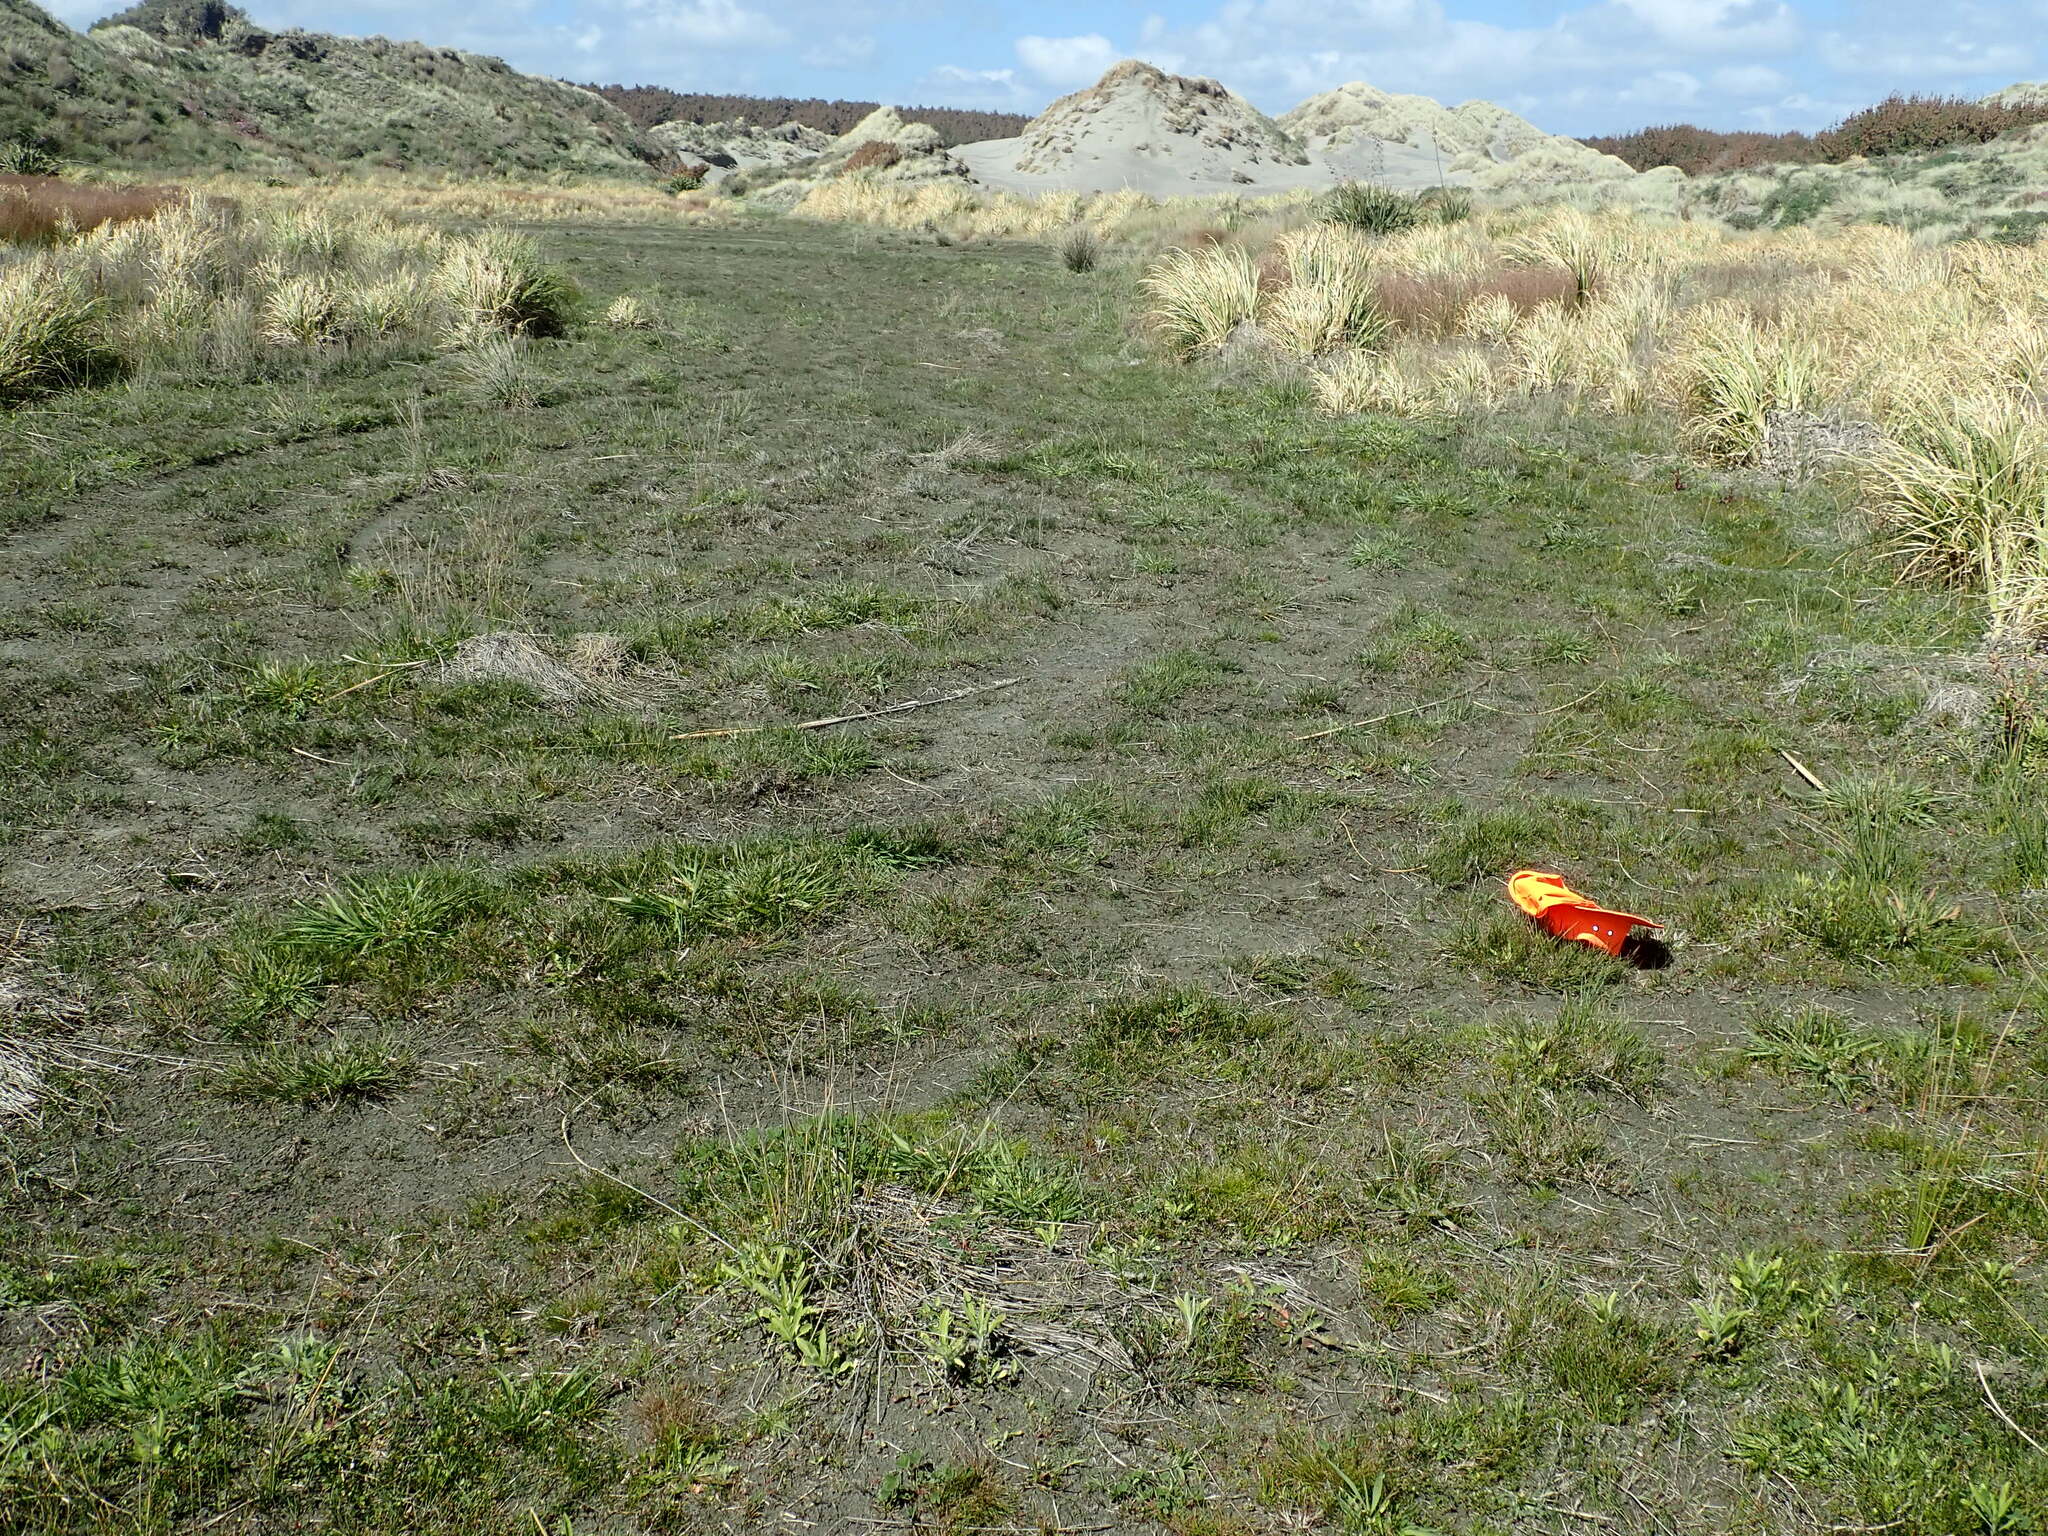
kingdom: Plantae
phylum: Tracheophyta
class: Magnoliopsida
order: Ranunculales
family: Ranunculaceae
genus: Ranunculus
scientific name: Ranunculus acaulis
